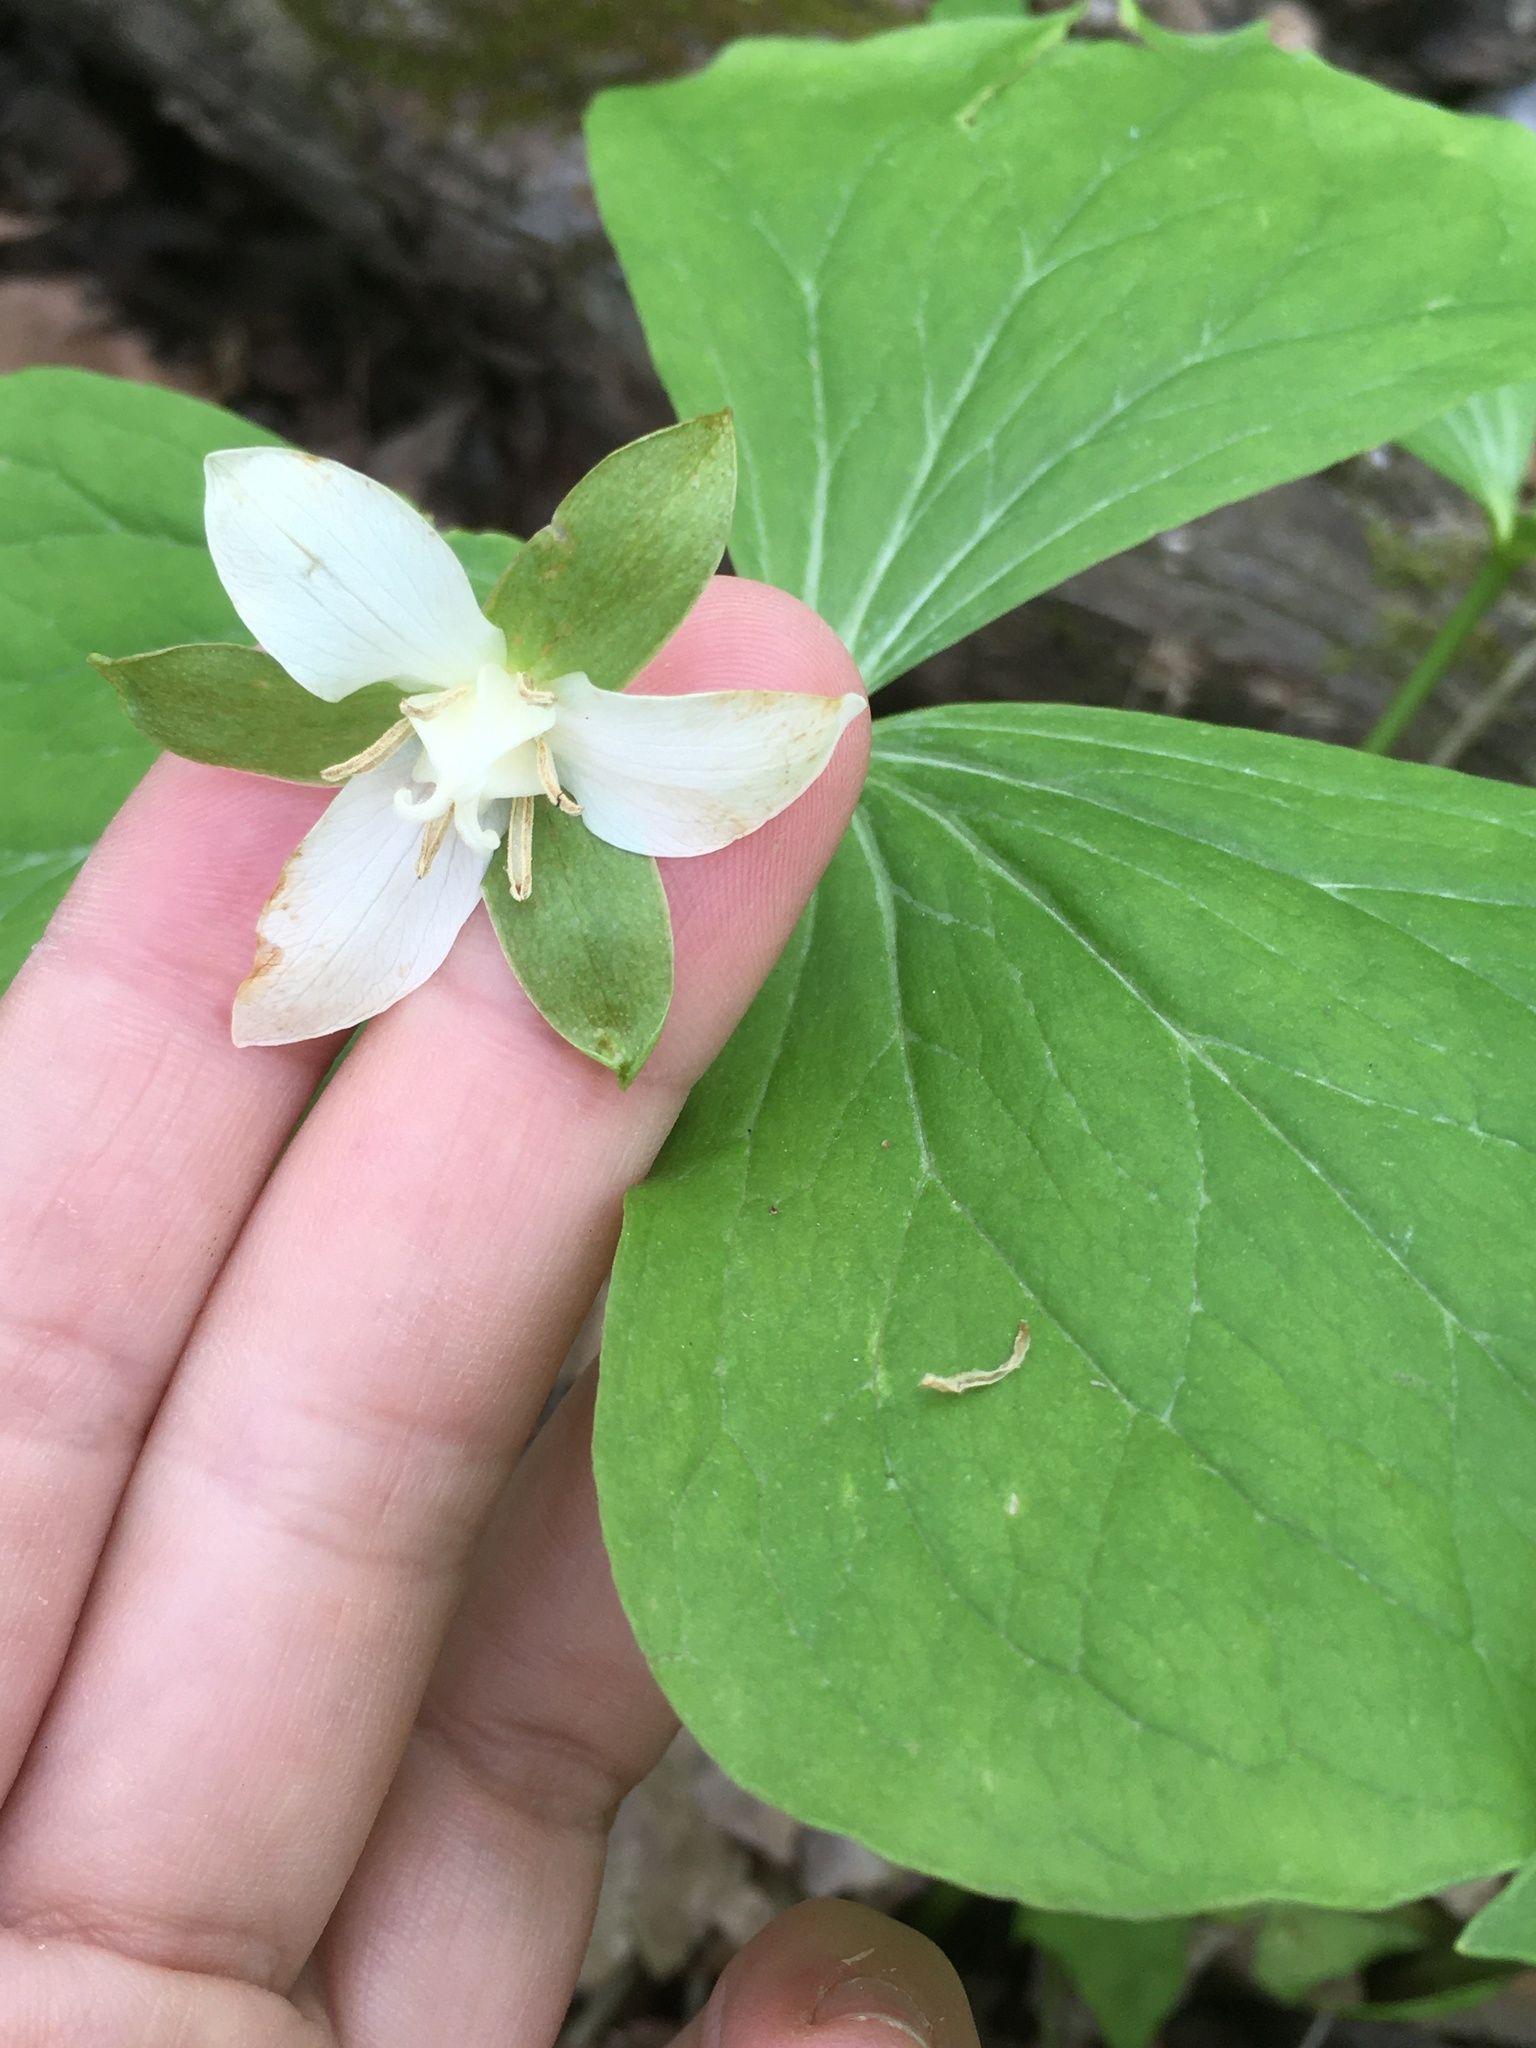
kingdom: Plantae
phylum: Tracheophyta
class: Liliopsida
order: Liliales
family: Melanthiaceae
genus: Trillium
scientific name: Trillium flexipes
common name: Drooping trillium
